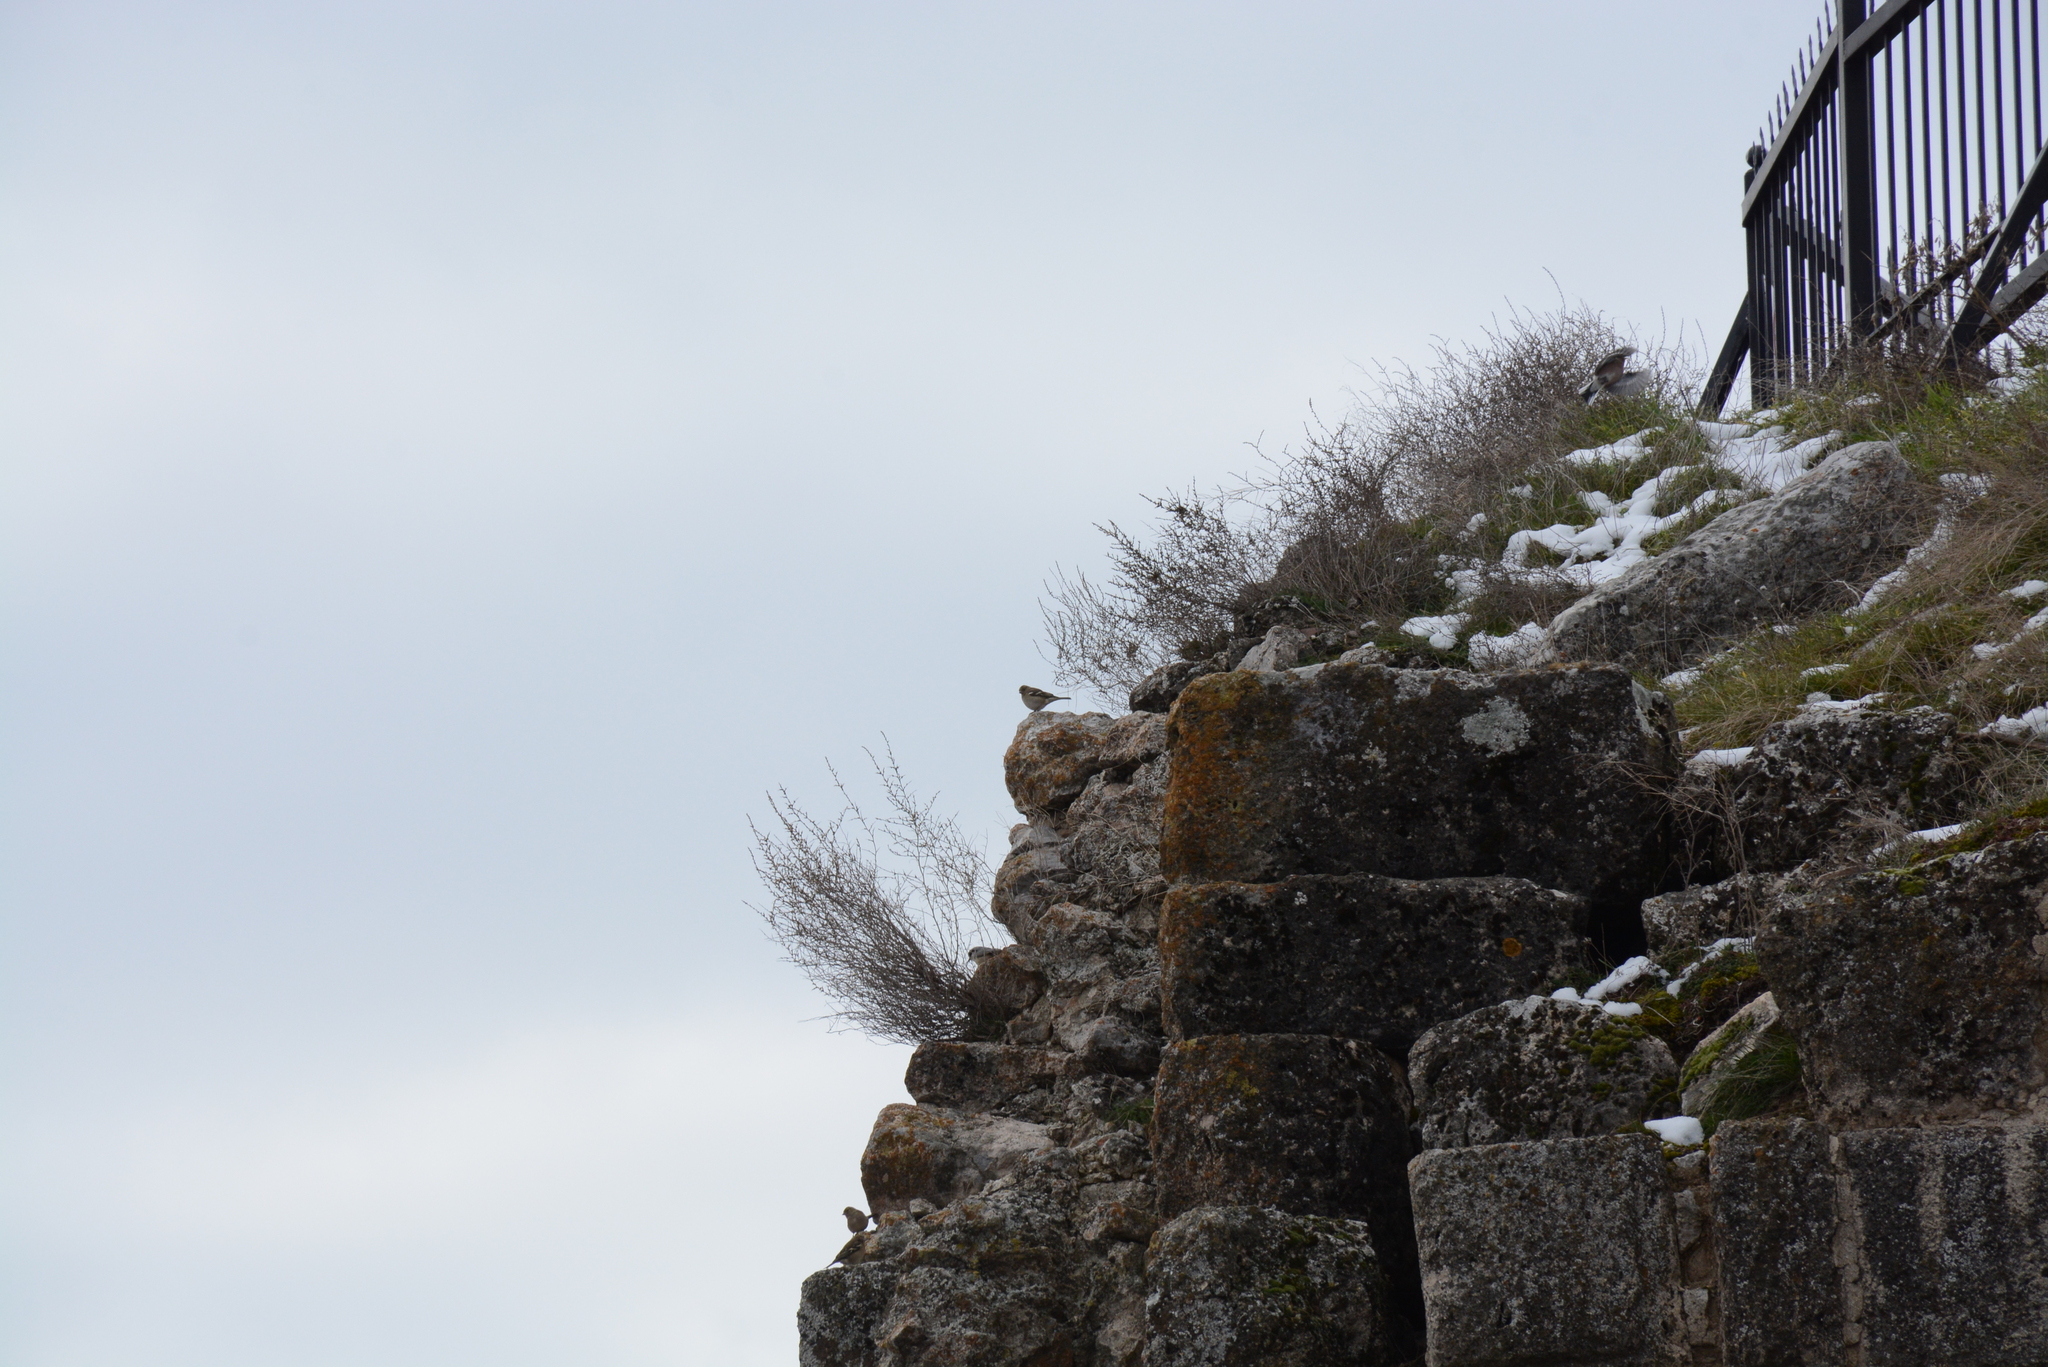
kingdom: Animalia
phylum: Chordata
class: Aves
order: Passeriformes
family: Fringillidae
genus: Fringilla
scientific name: Fringilla coelebs
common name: Common chaffinch
